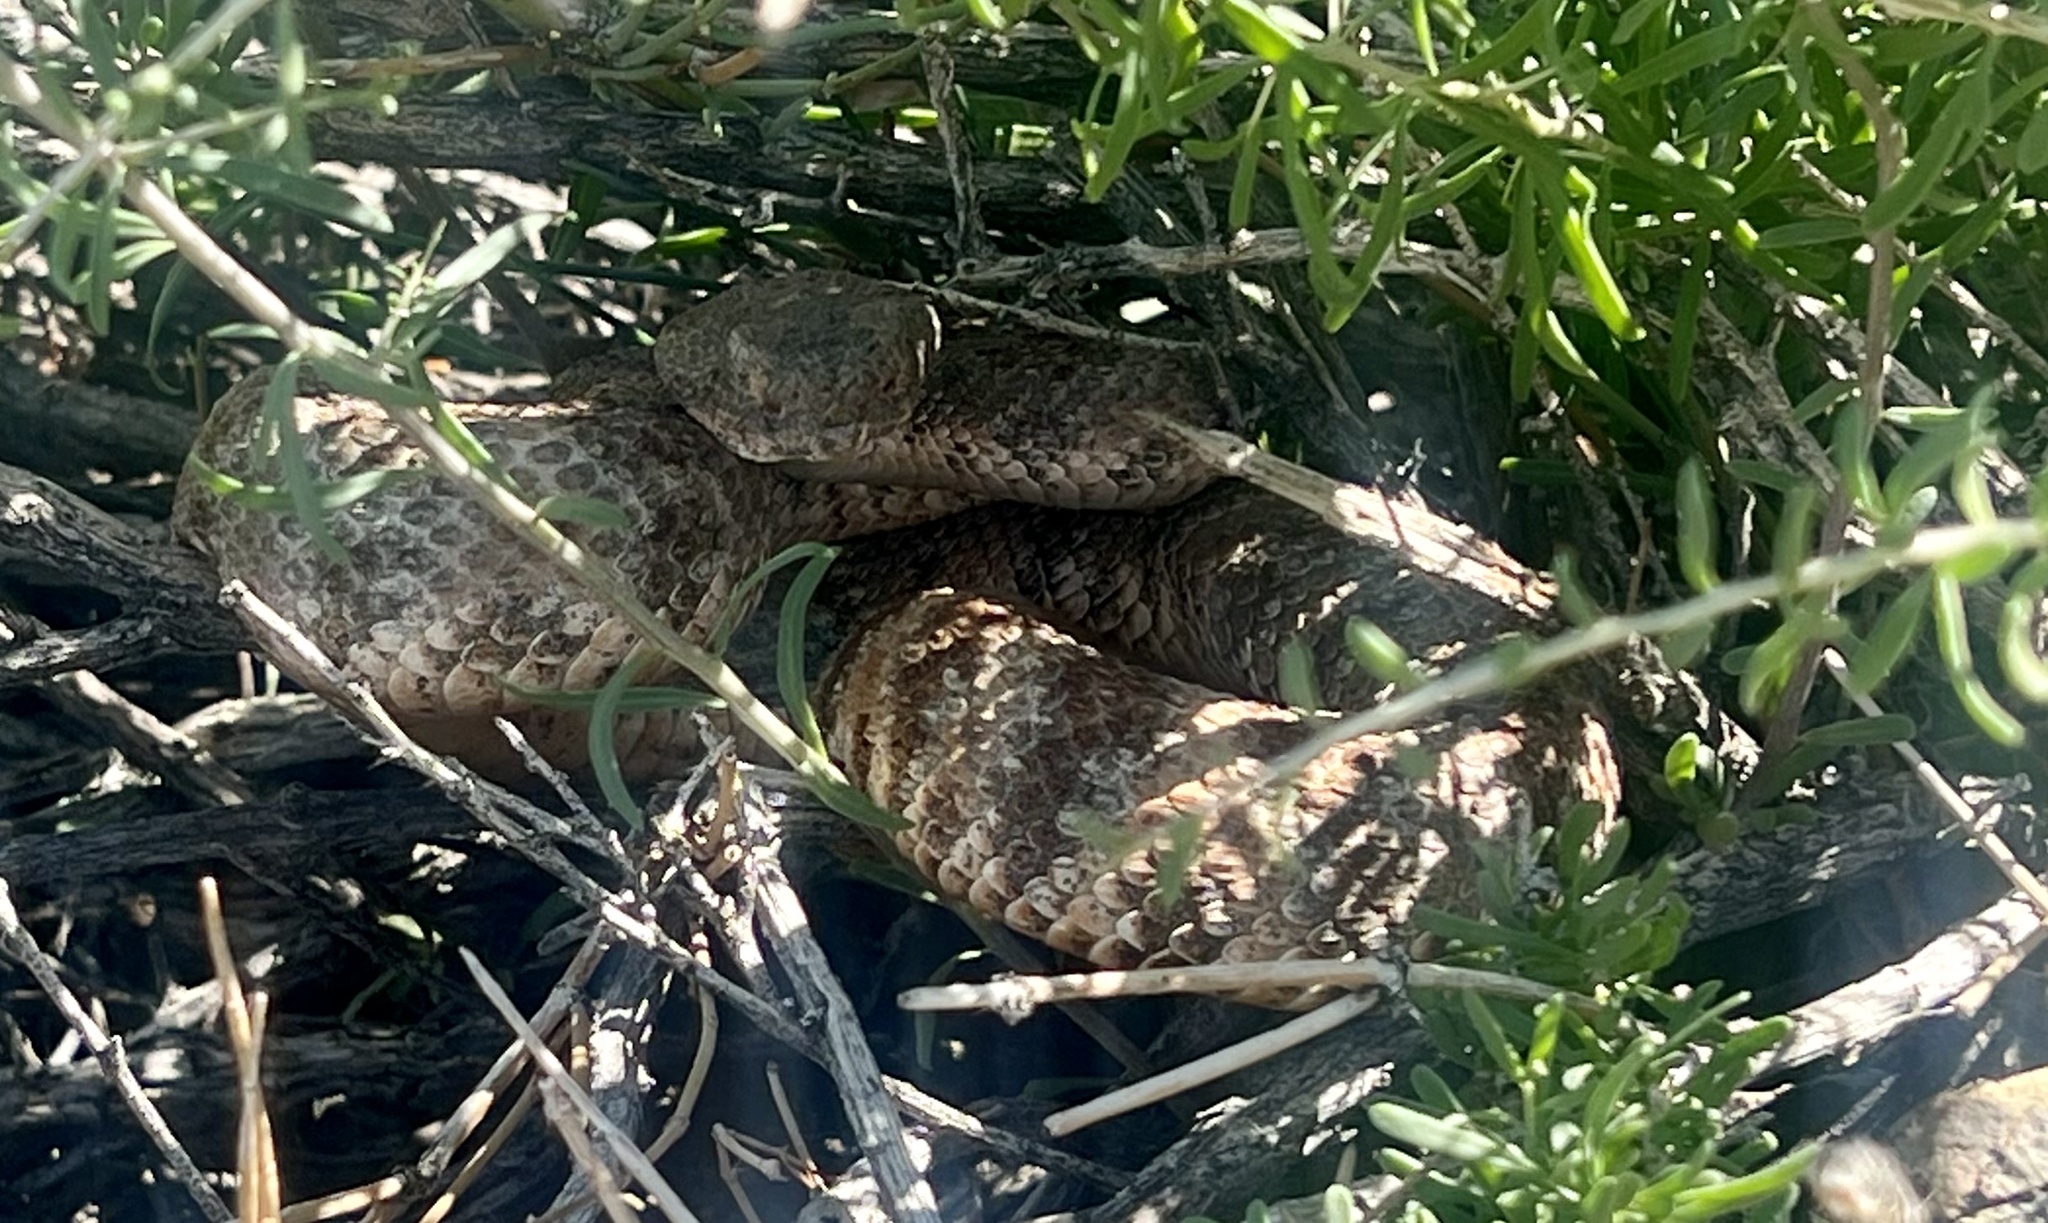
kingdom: Animalia
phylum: Chordata
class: Squamata
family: Viperidae
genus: Crotalus
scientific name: Crotalus pyrrhus
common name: Southwestern speckled rattlesnake
